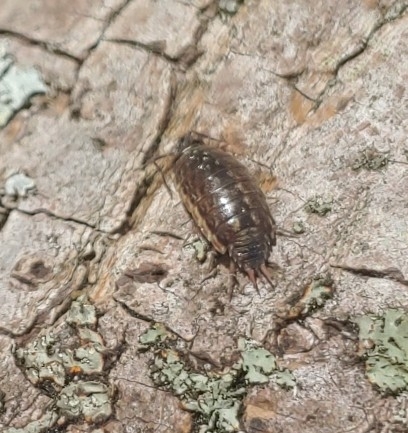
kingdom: Animalia
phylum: Arthropoda
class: Malacostraca
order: Isopoda
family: Philosciidae
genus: Philoscia
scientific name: Philoscia muscorum
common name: Common striped woodlouse
